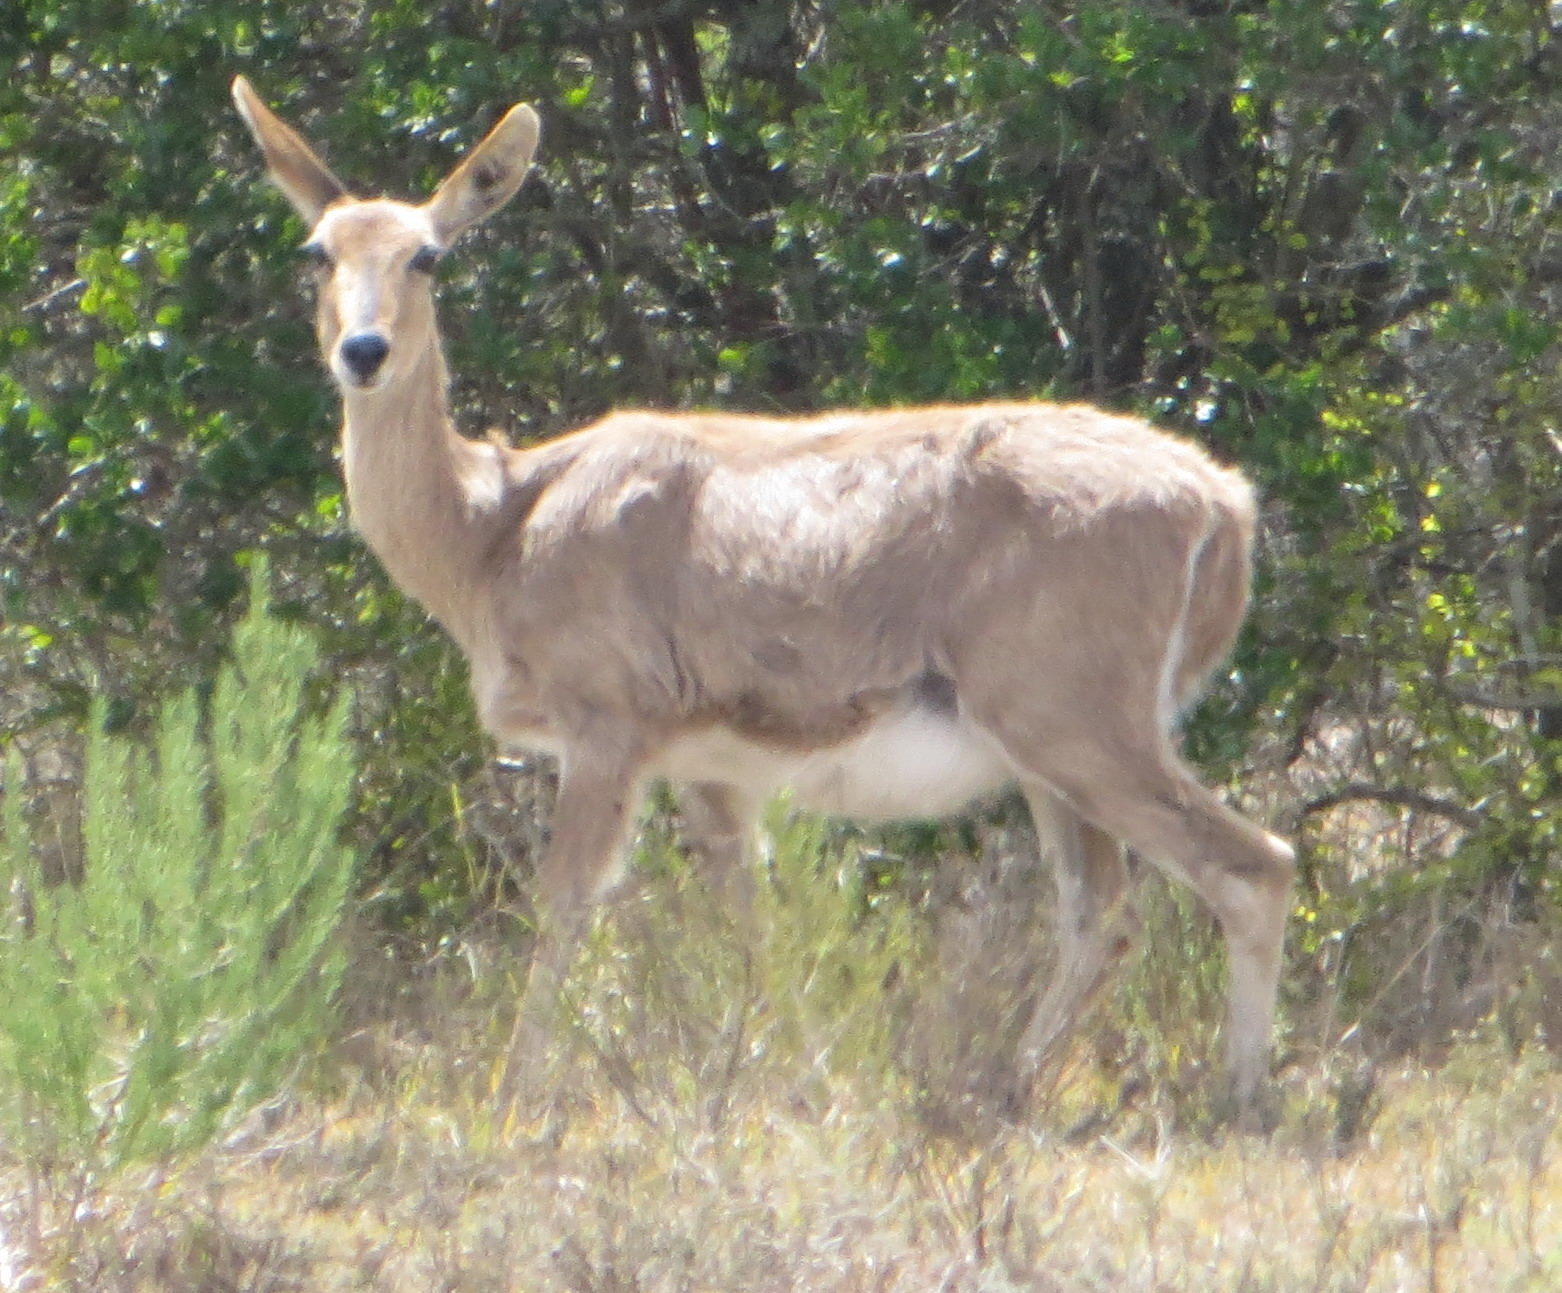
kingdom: Animalia
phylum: Chordata
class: Mammalia
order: Artiodactyla
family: Bovidae
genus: Redunca
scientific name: Redunca fulvorufula
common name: Mountain reedbuck
